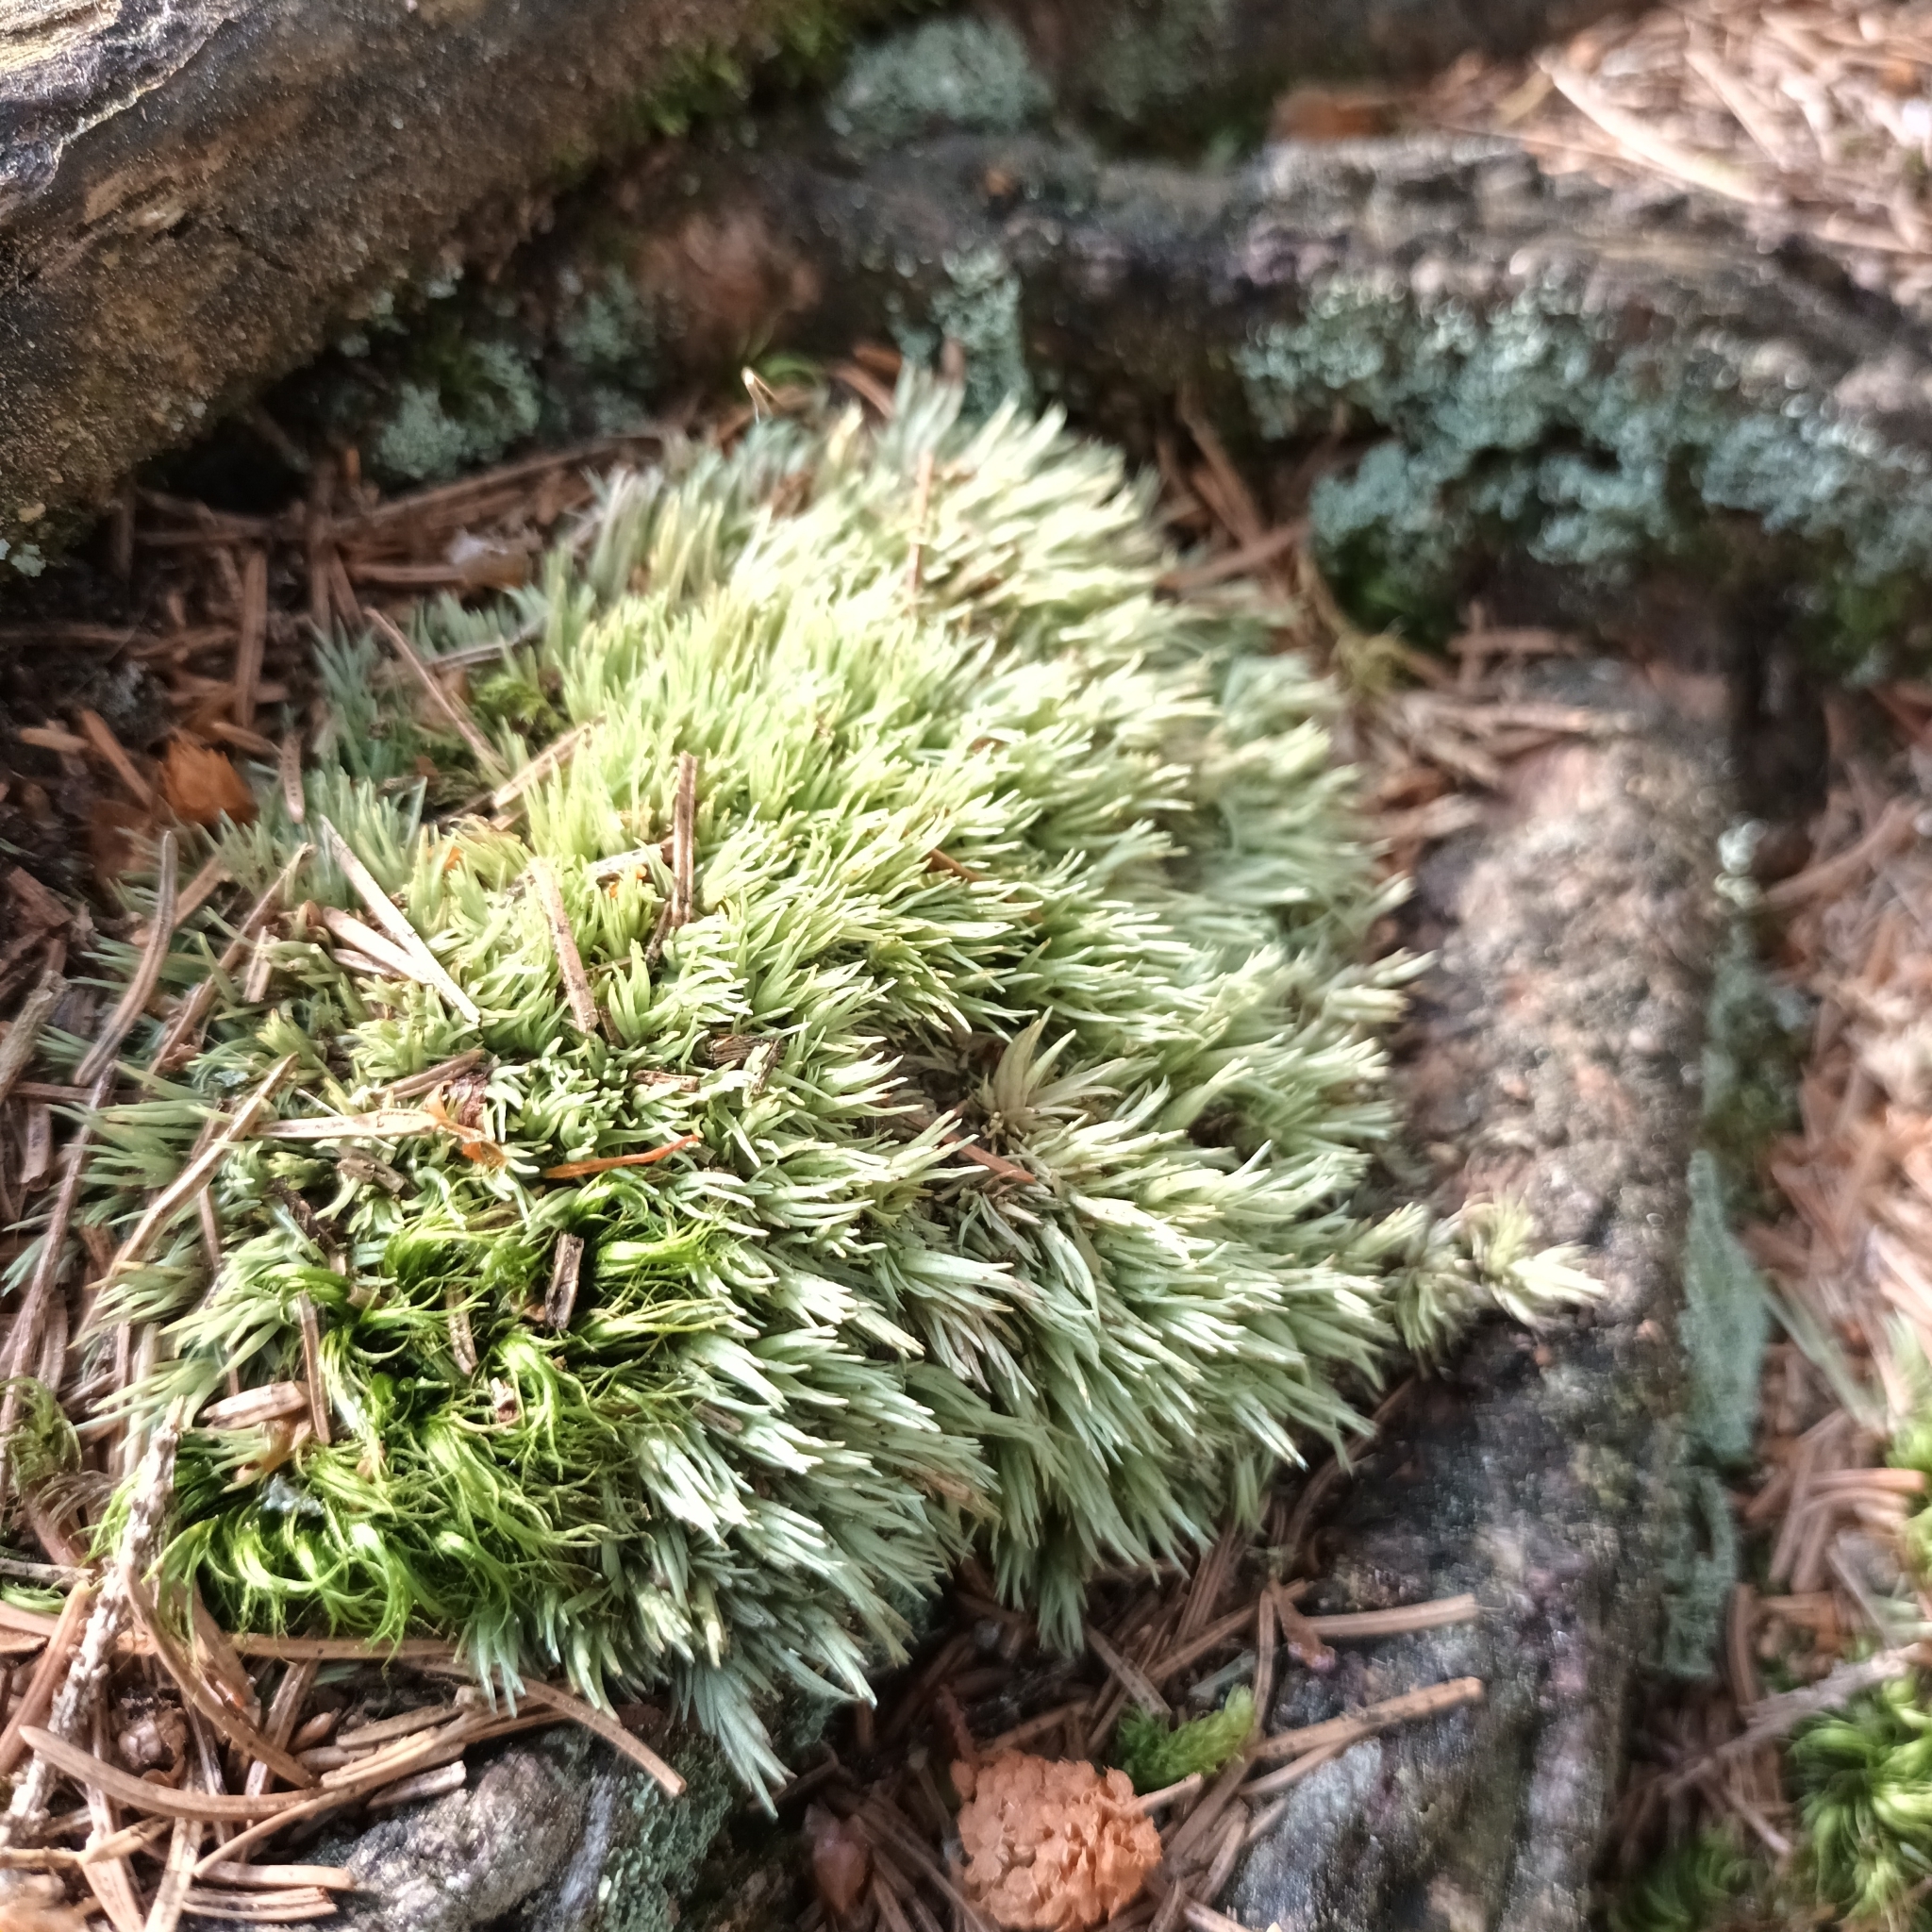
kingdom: Plantae
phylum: Bryophyta
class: Bryopsida
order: Dicranales
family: Leucobryaceae
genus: Leucobryum
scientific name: Leucobryum glaucum
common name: Large white-moss
